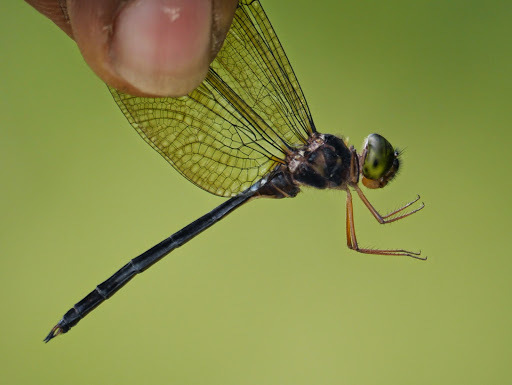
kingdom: Animalia
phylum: Arthropoda
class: Insecta
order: Odonata
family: Libellulidae
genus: Zyxomma
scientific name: Zyxomma atlanticum
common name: Clear-winged dusk-darter
